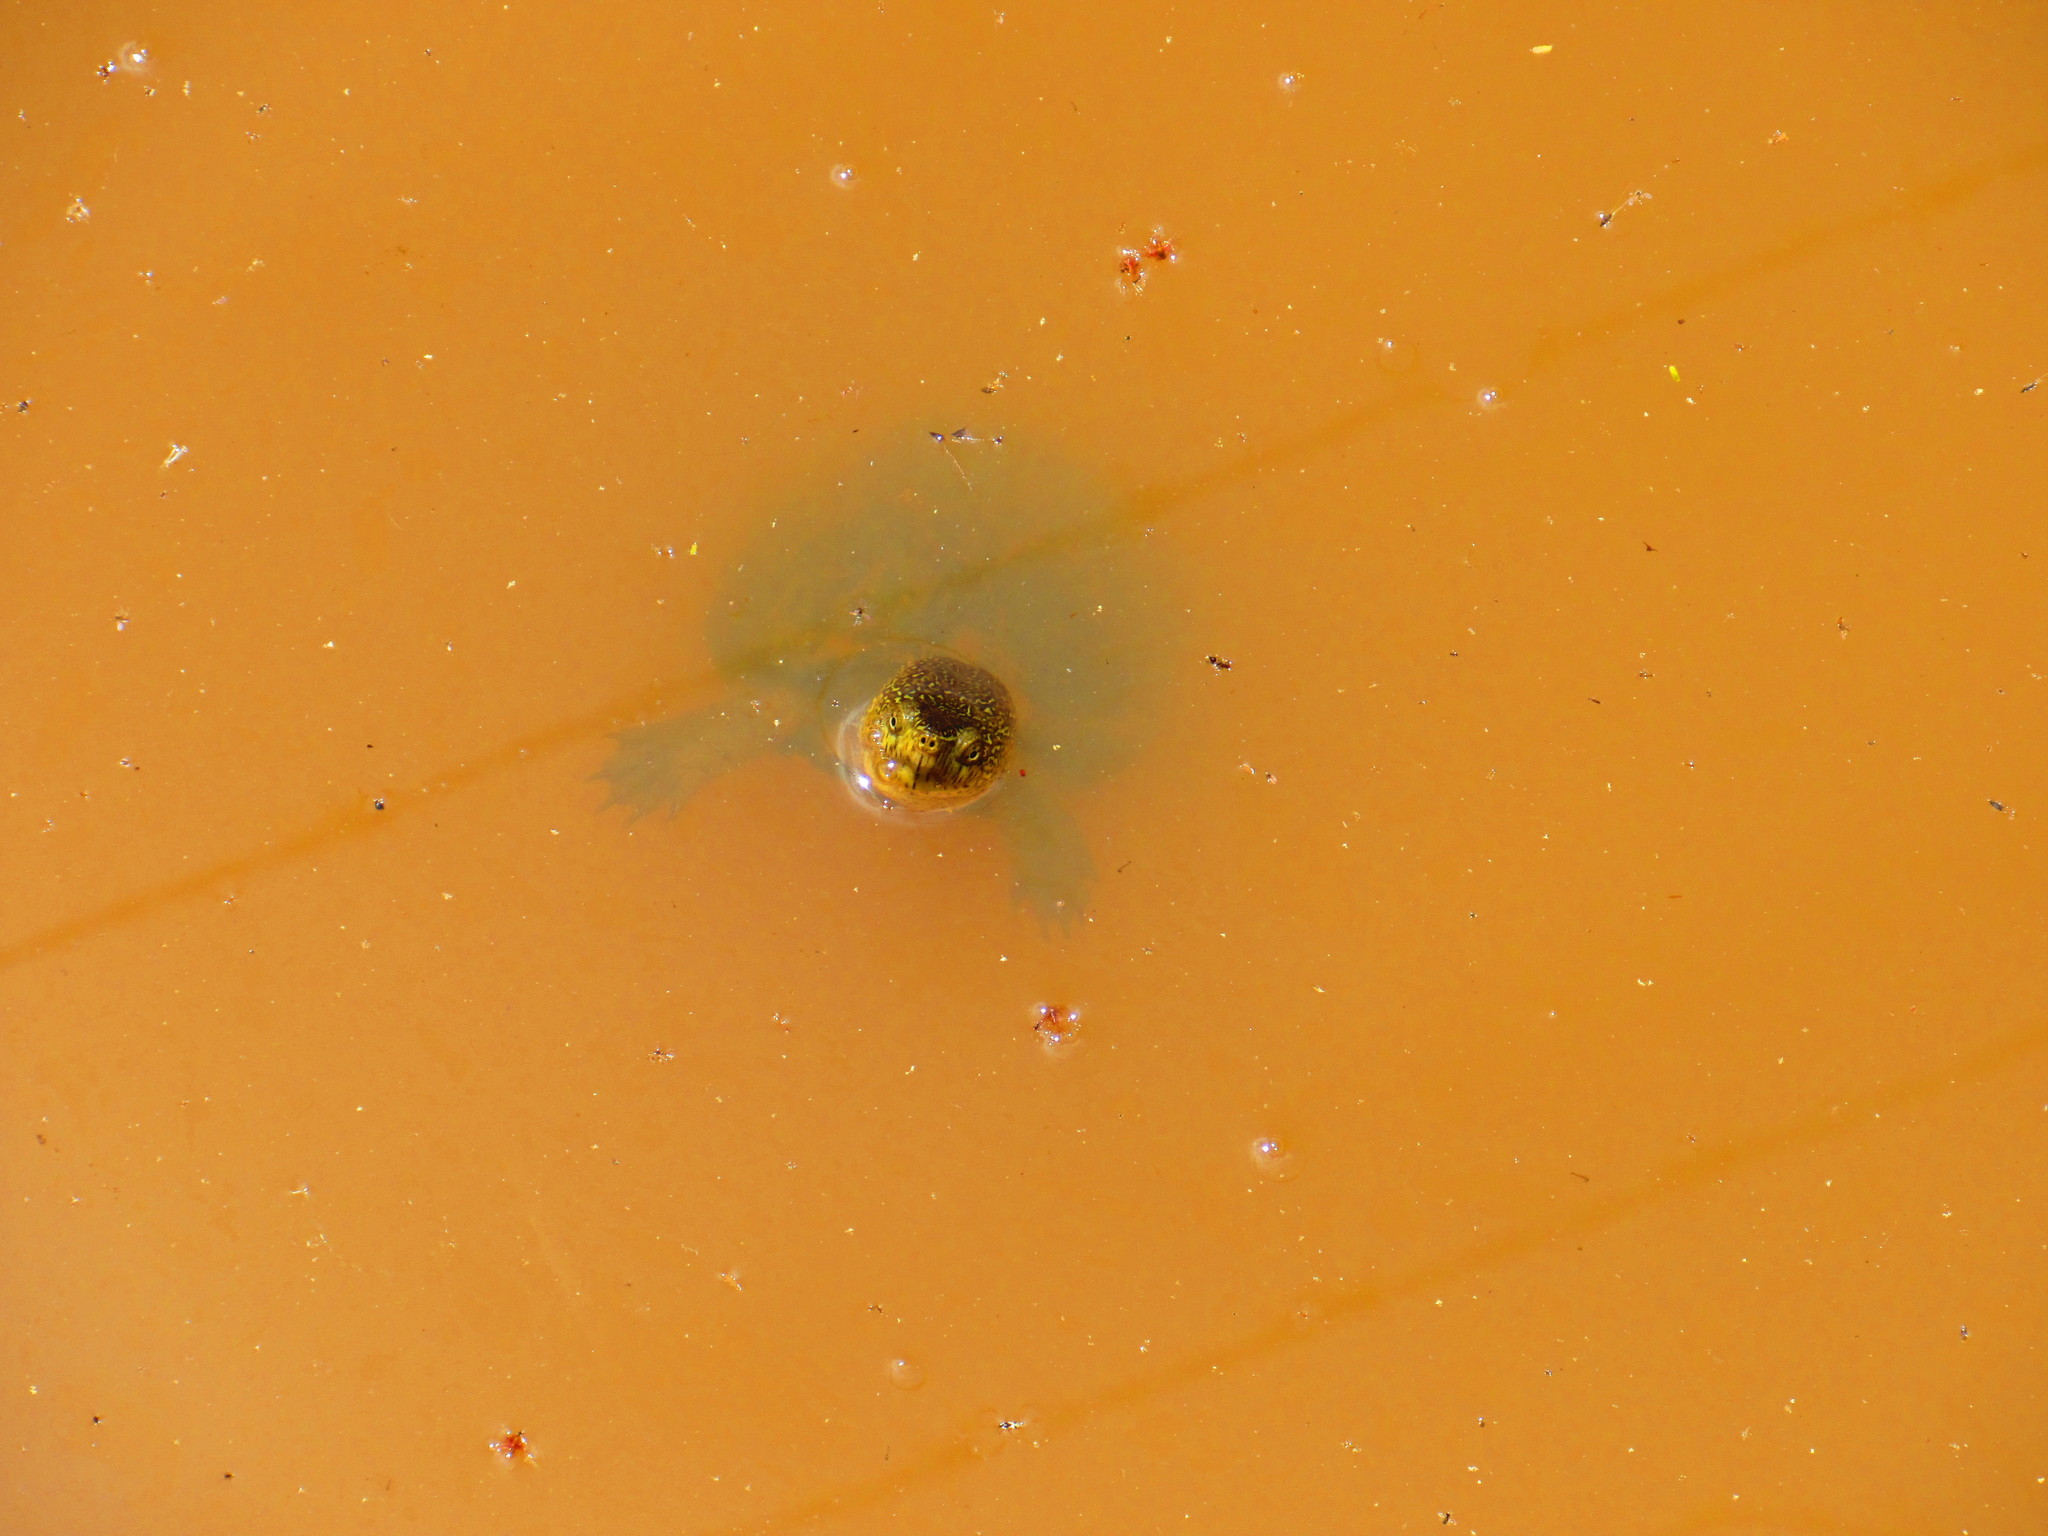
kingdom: Animalia
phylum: Chordata
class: Testudines
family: Kinosternidae
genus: Kinosternon
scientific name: Kinosternon hirtipes
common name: Rough-footed mud turtle
